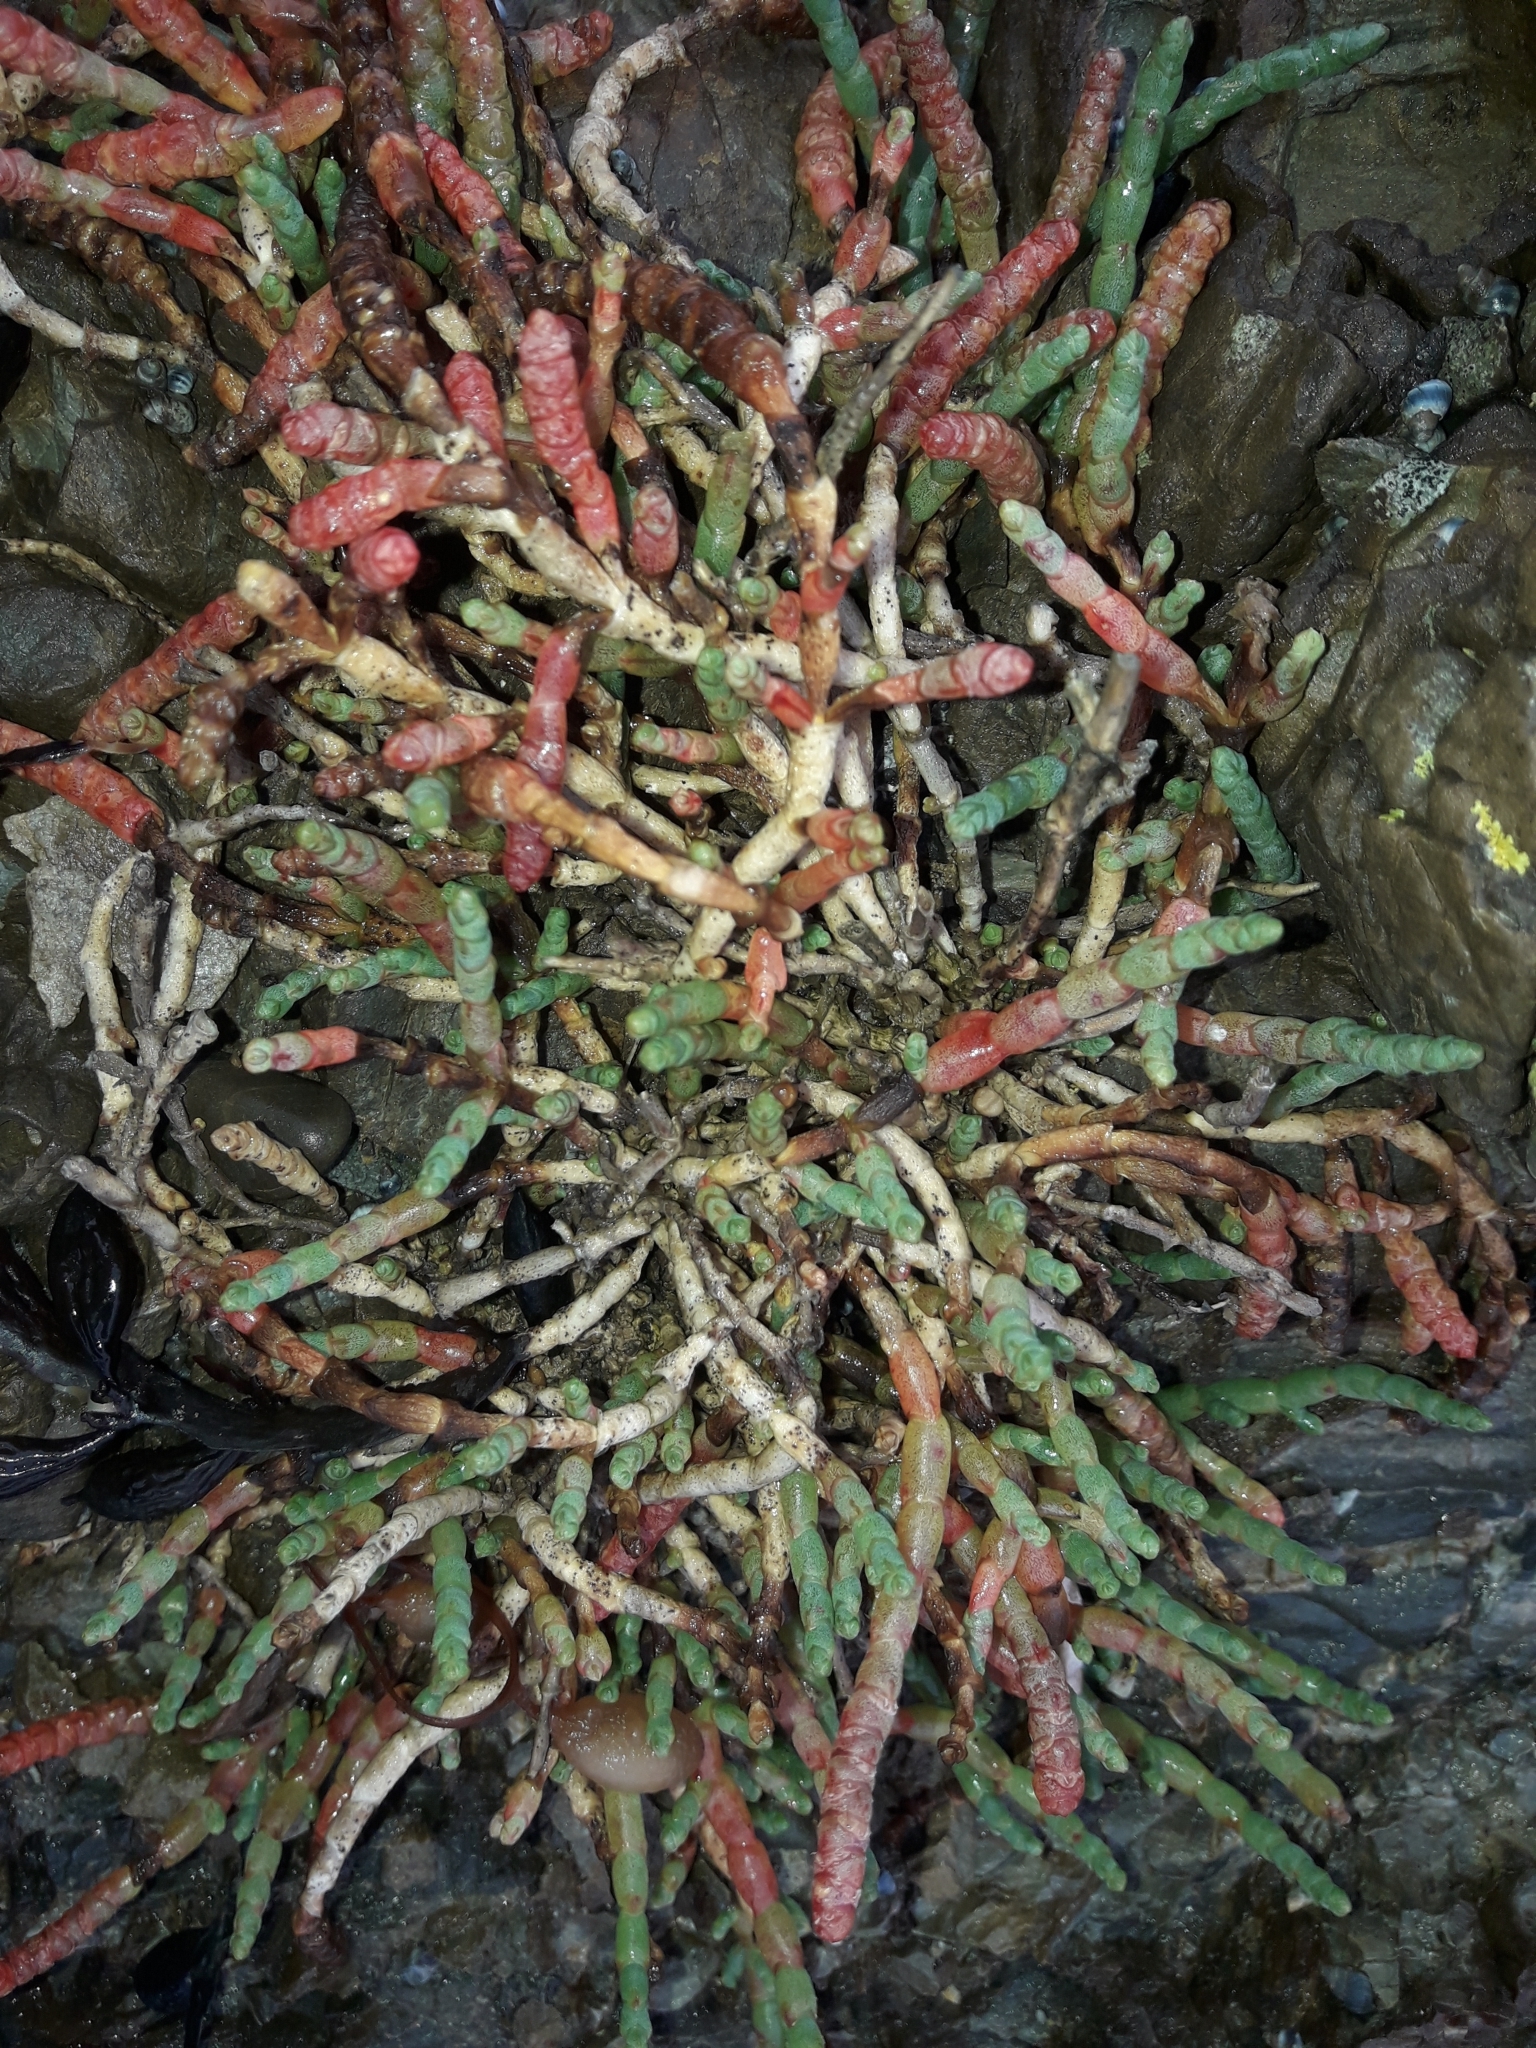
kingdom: Plantae
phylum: Tracheophyta
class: Magnoliopsida
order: Caryophyllales
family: Amaranthaceae
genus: Salicornia
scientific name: Salicornia quinqueflora
